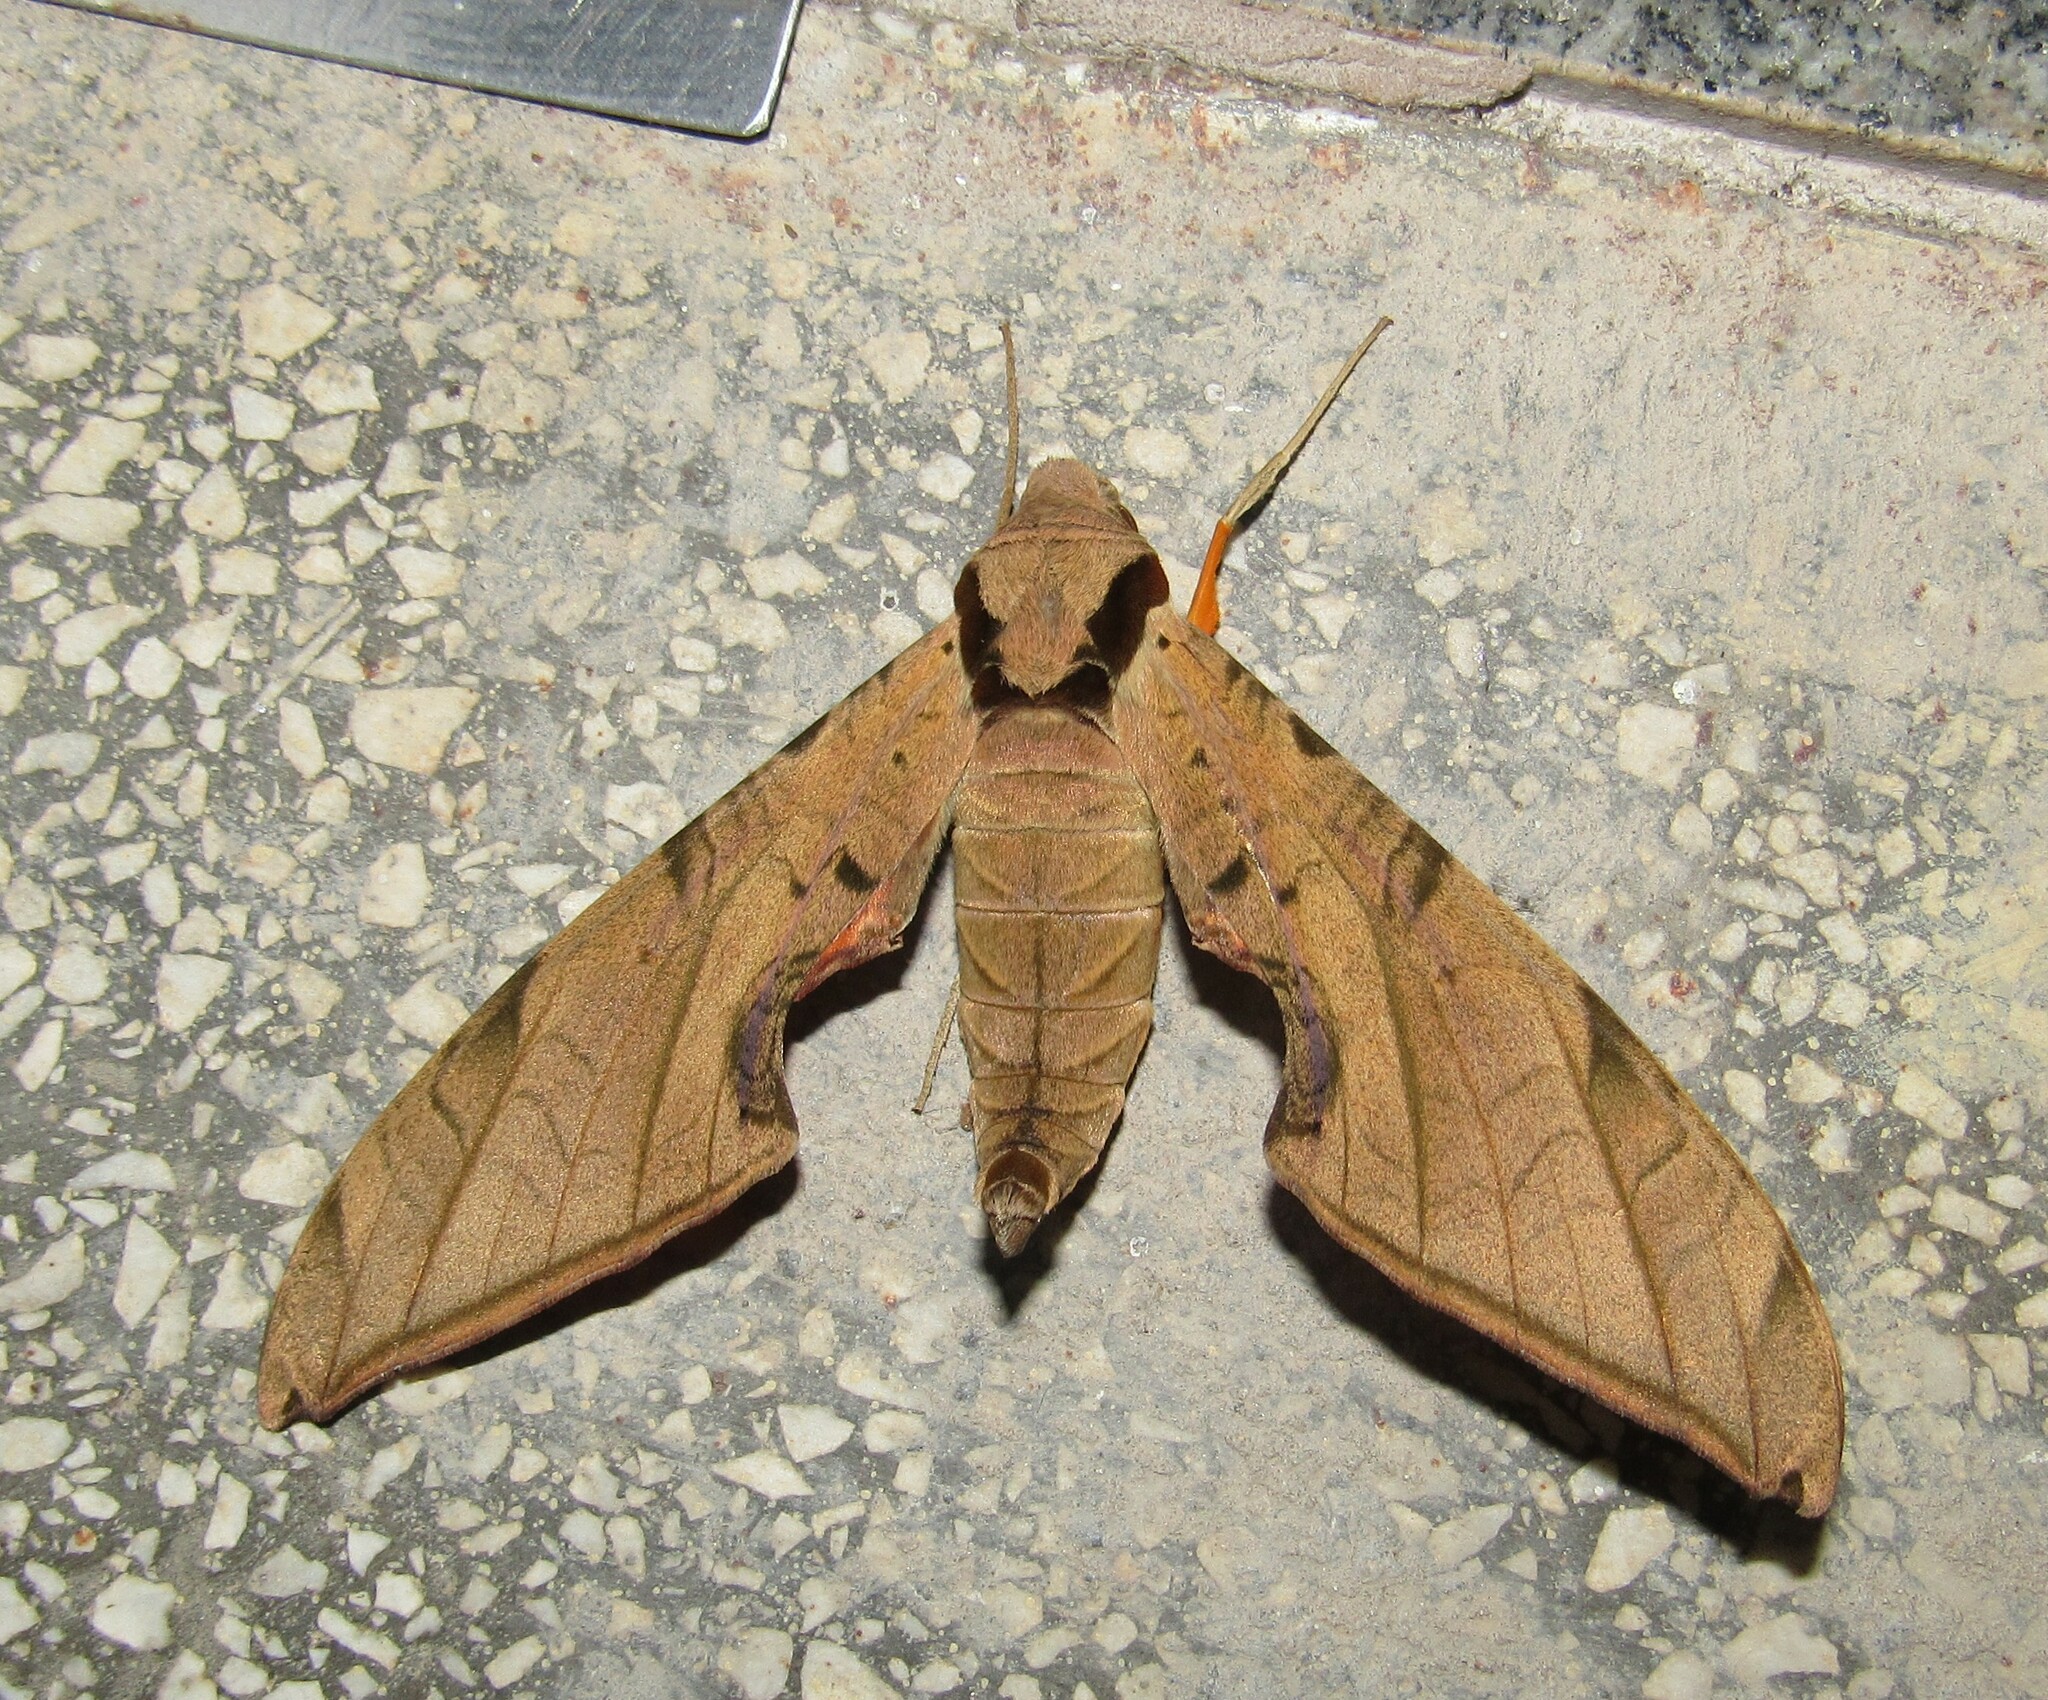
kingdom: Animalia
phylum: Arthropoda
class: Insecta
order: Lepidoptera
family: Sphingidae
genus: Protambulyx
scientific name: Protambulyx strigilis
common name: Streaked sphinx
